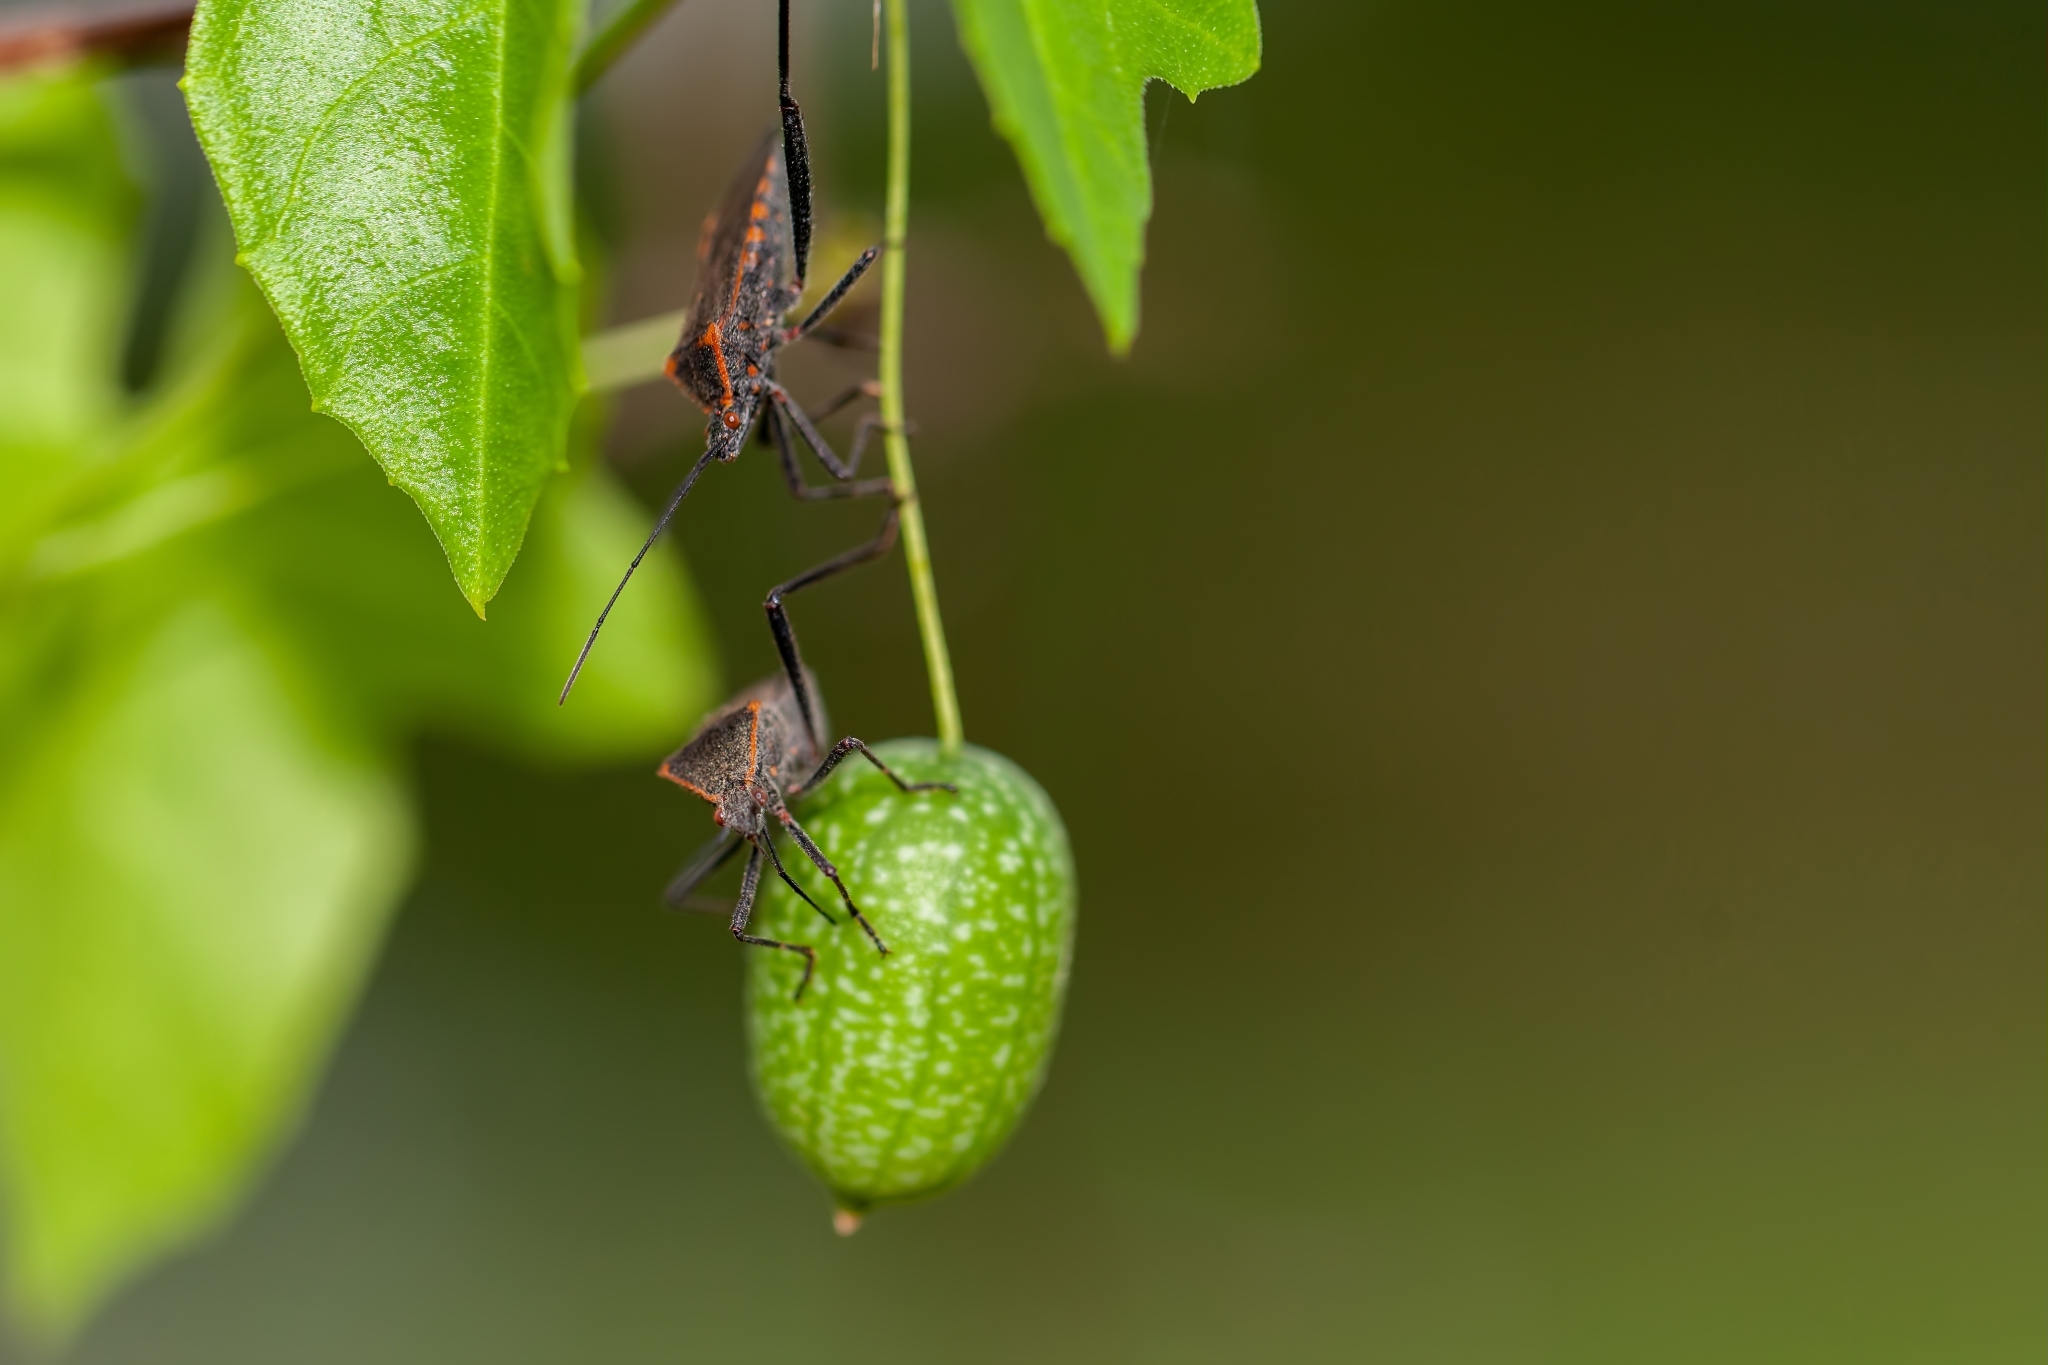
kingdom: Animalia
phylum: Arthropoda
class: Insecta
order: Hemiptera
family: Coreidae
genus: Phthiacnemia
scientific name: Phthiacnemia picta
